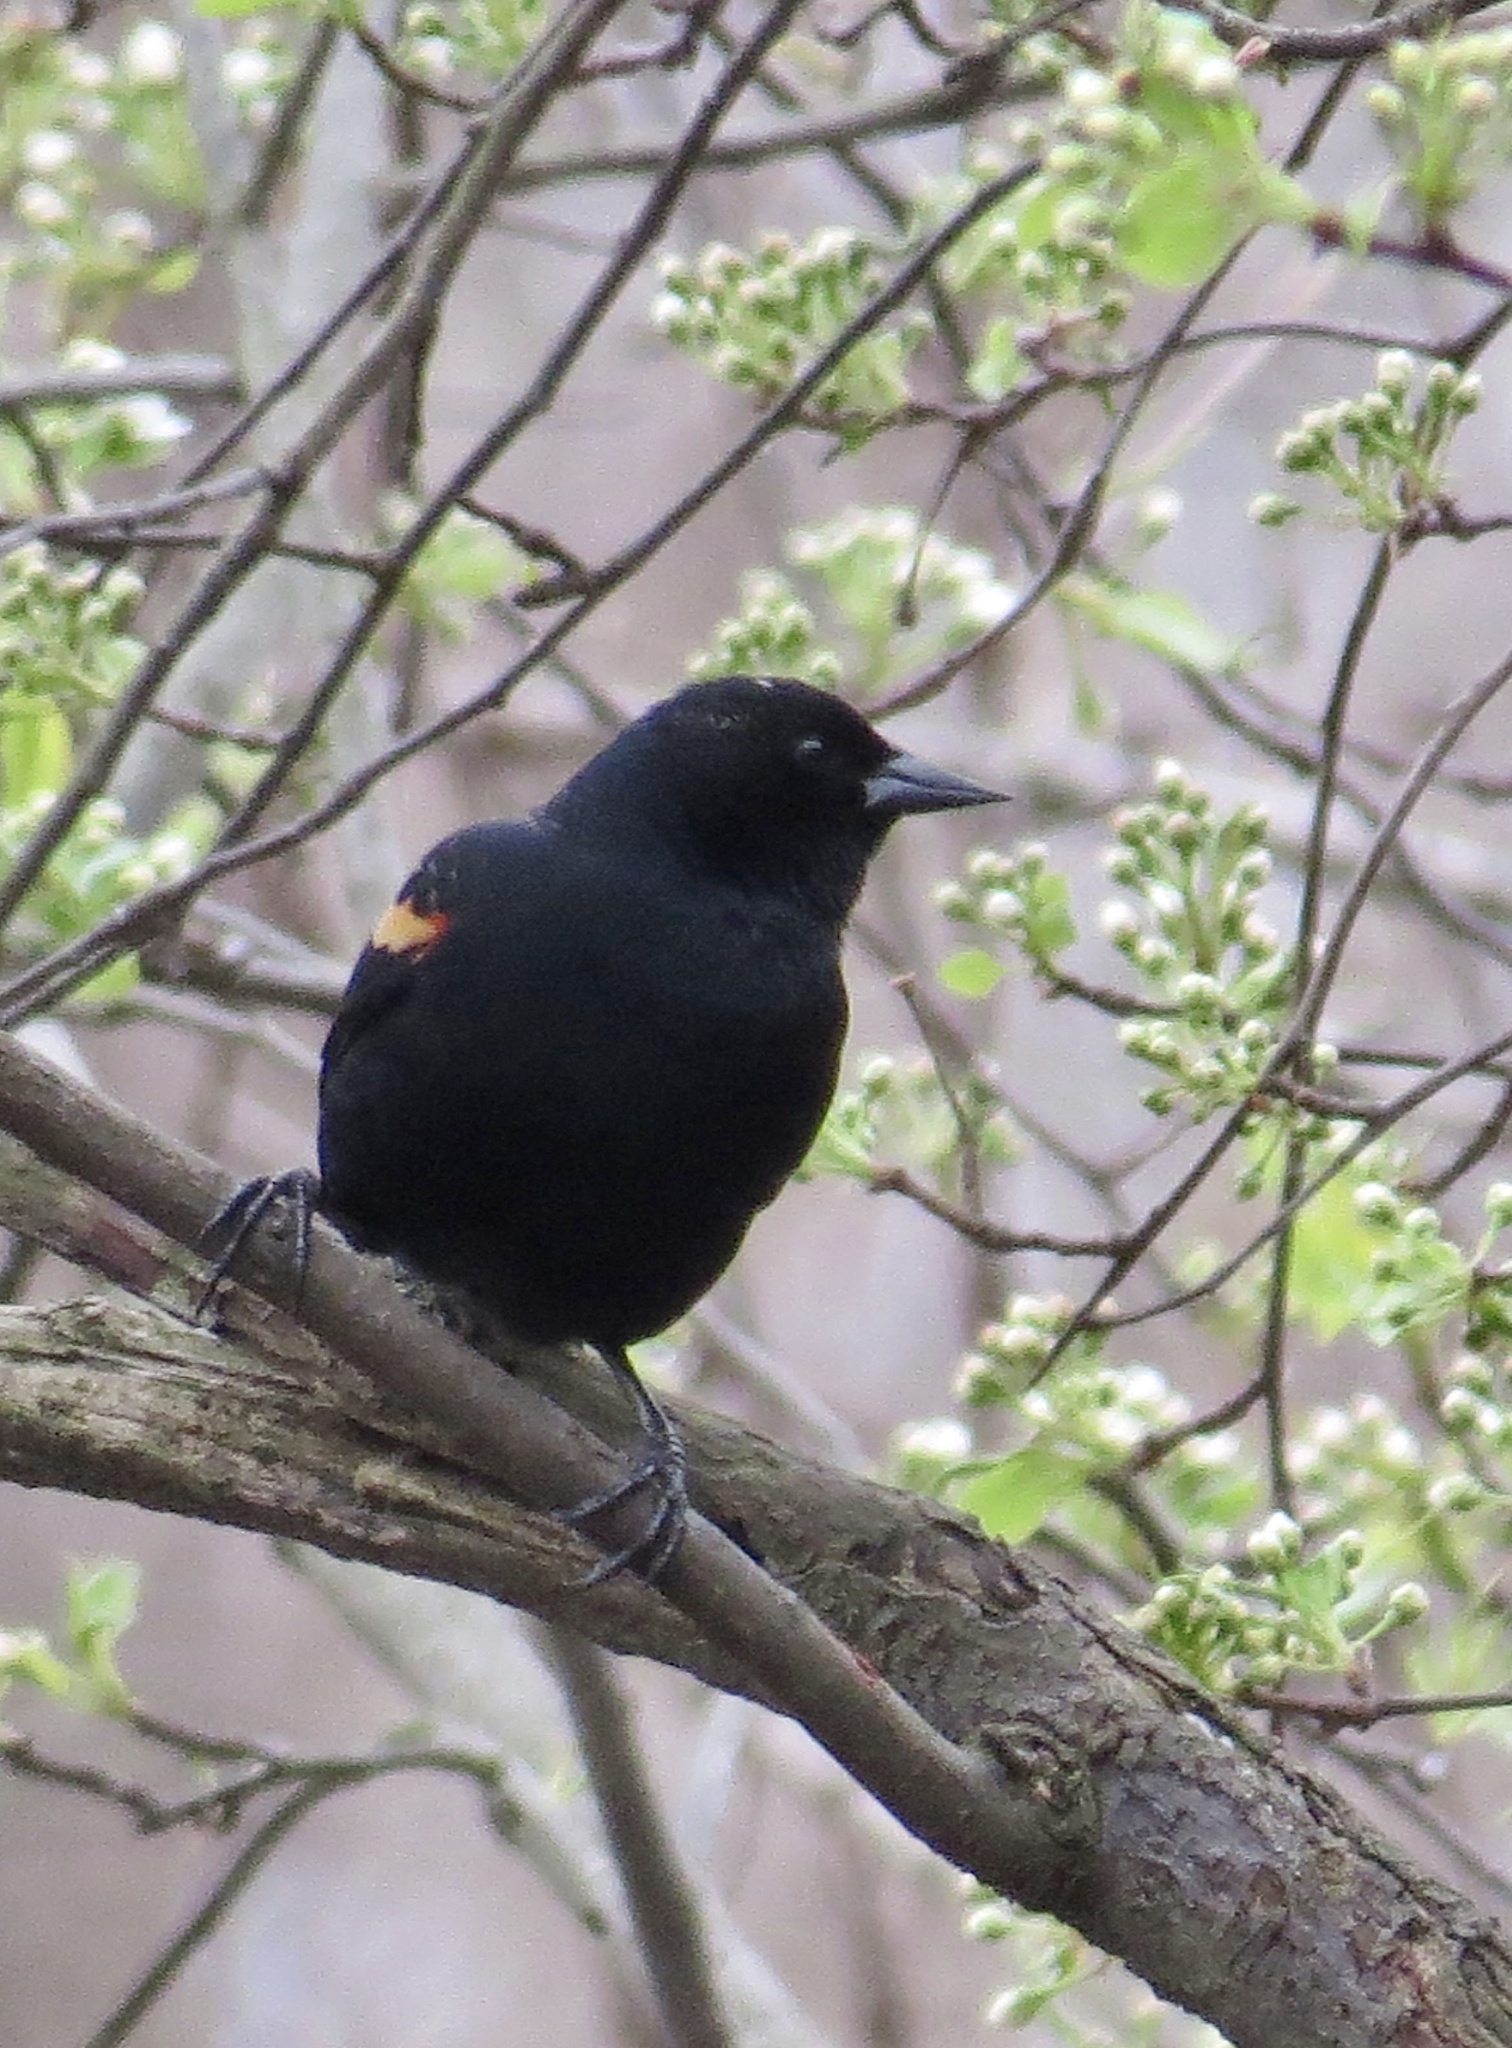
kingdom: Animalia
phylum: Chordata
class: Aves
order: Passeriformes
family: Icteridae
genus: Agelaius
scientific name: Agelaius phoeniceus
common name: Red-winged blackbird
